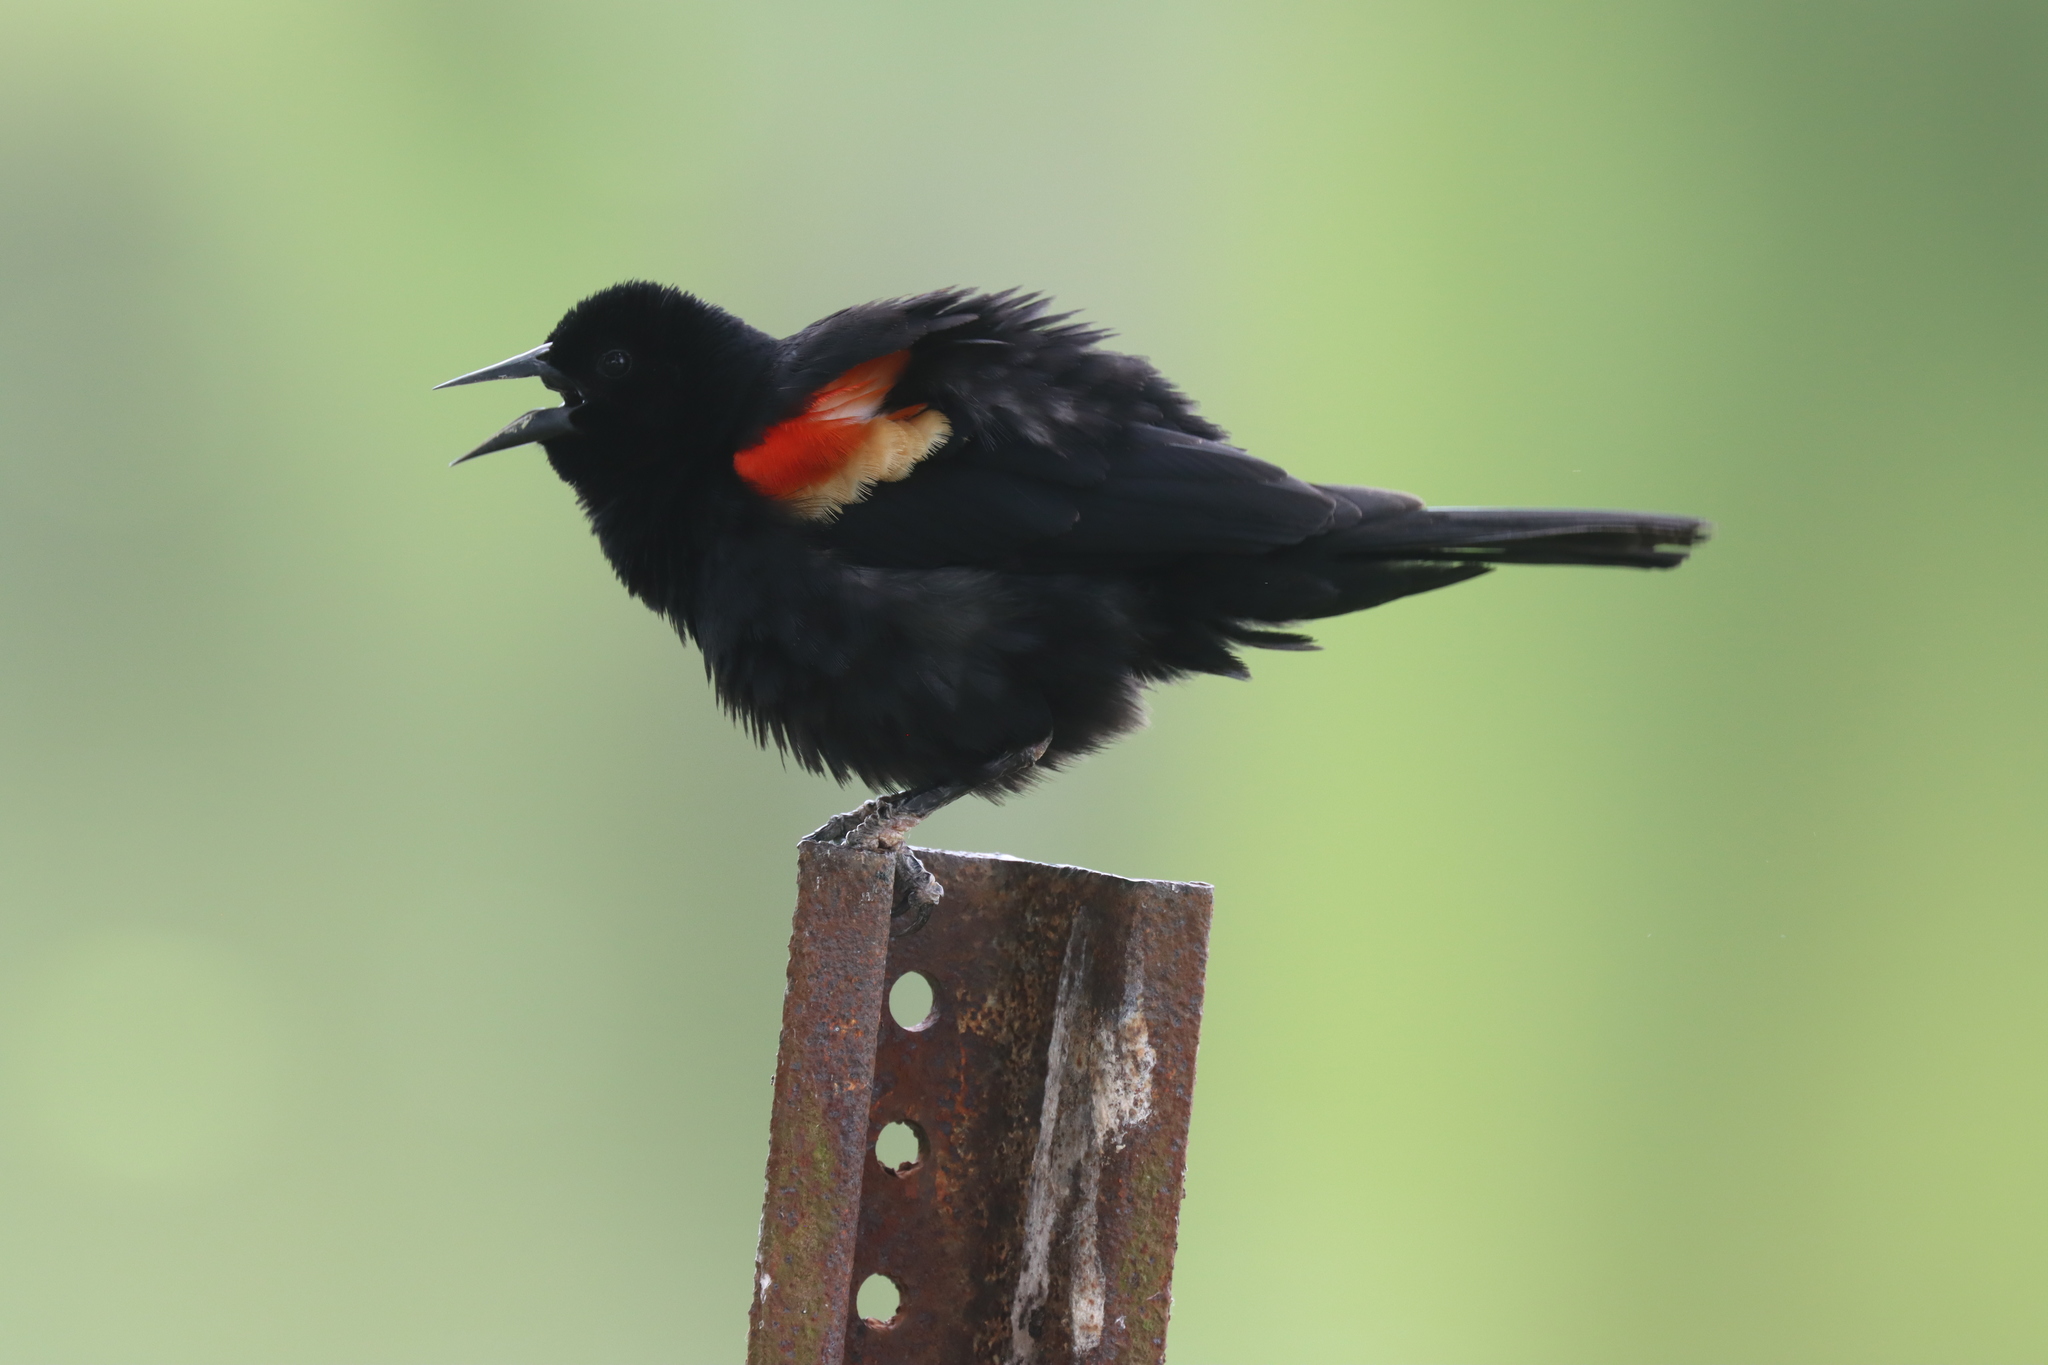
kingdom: Animalia
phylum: Chordata
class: Aves
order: Passeriformes
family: Icteridae
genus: Agelaius
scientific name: Agelaius phoeniceus
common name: Red-winged blackbird
